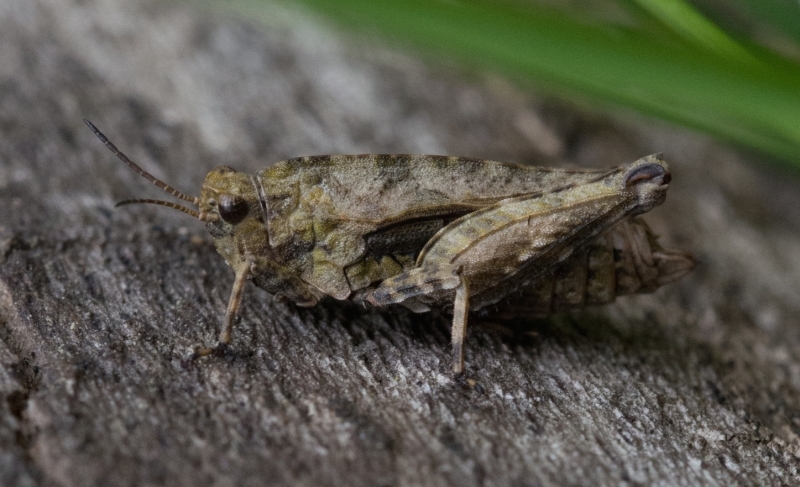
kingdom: Animalia
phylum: Arthropoda
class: Insecta
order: Orthoptera
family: Tetrigidae
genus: Tetrix
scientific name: Tetrix undulata
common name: Common groundhopper
